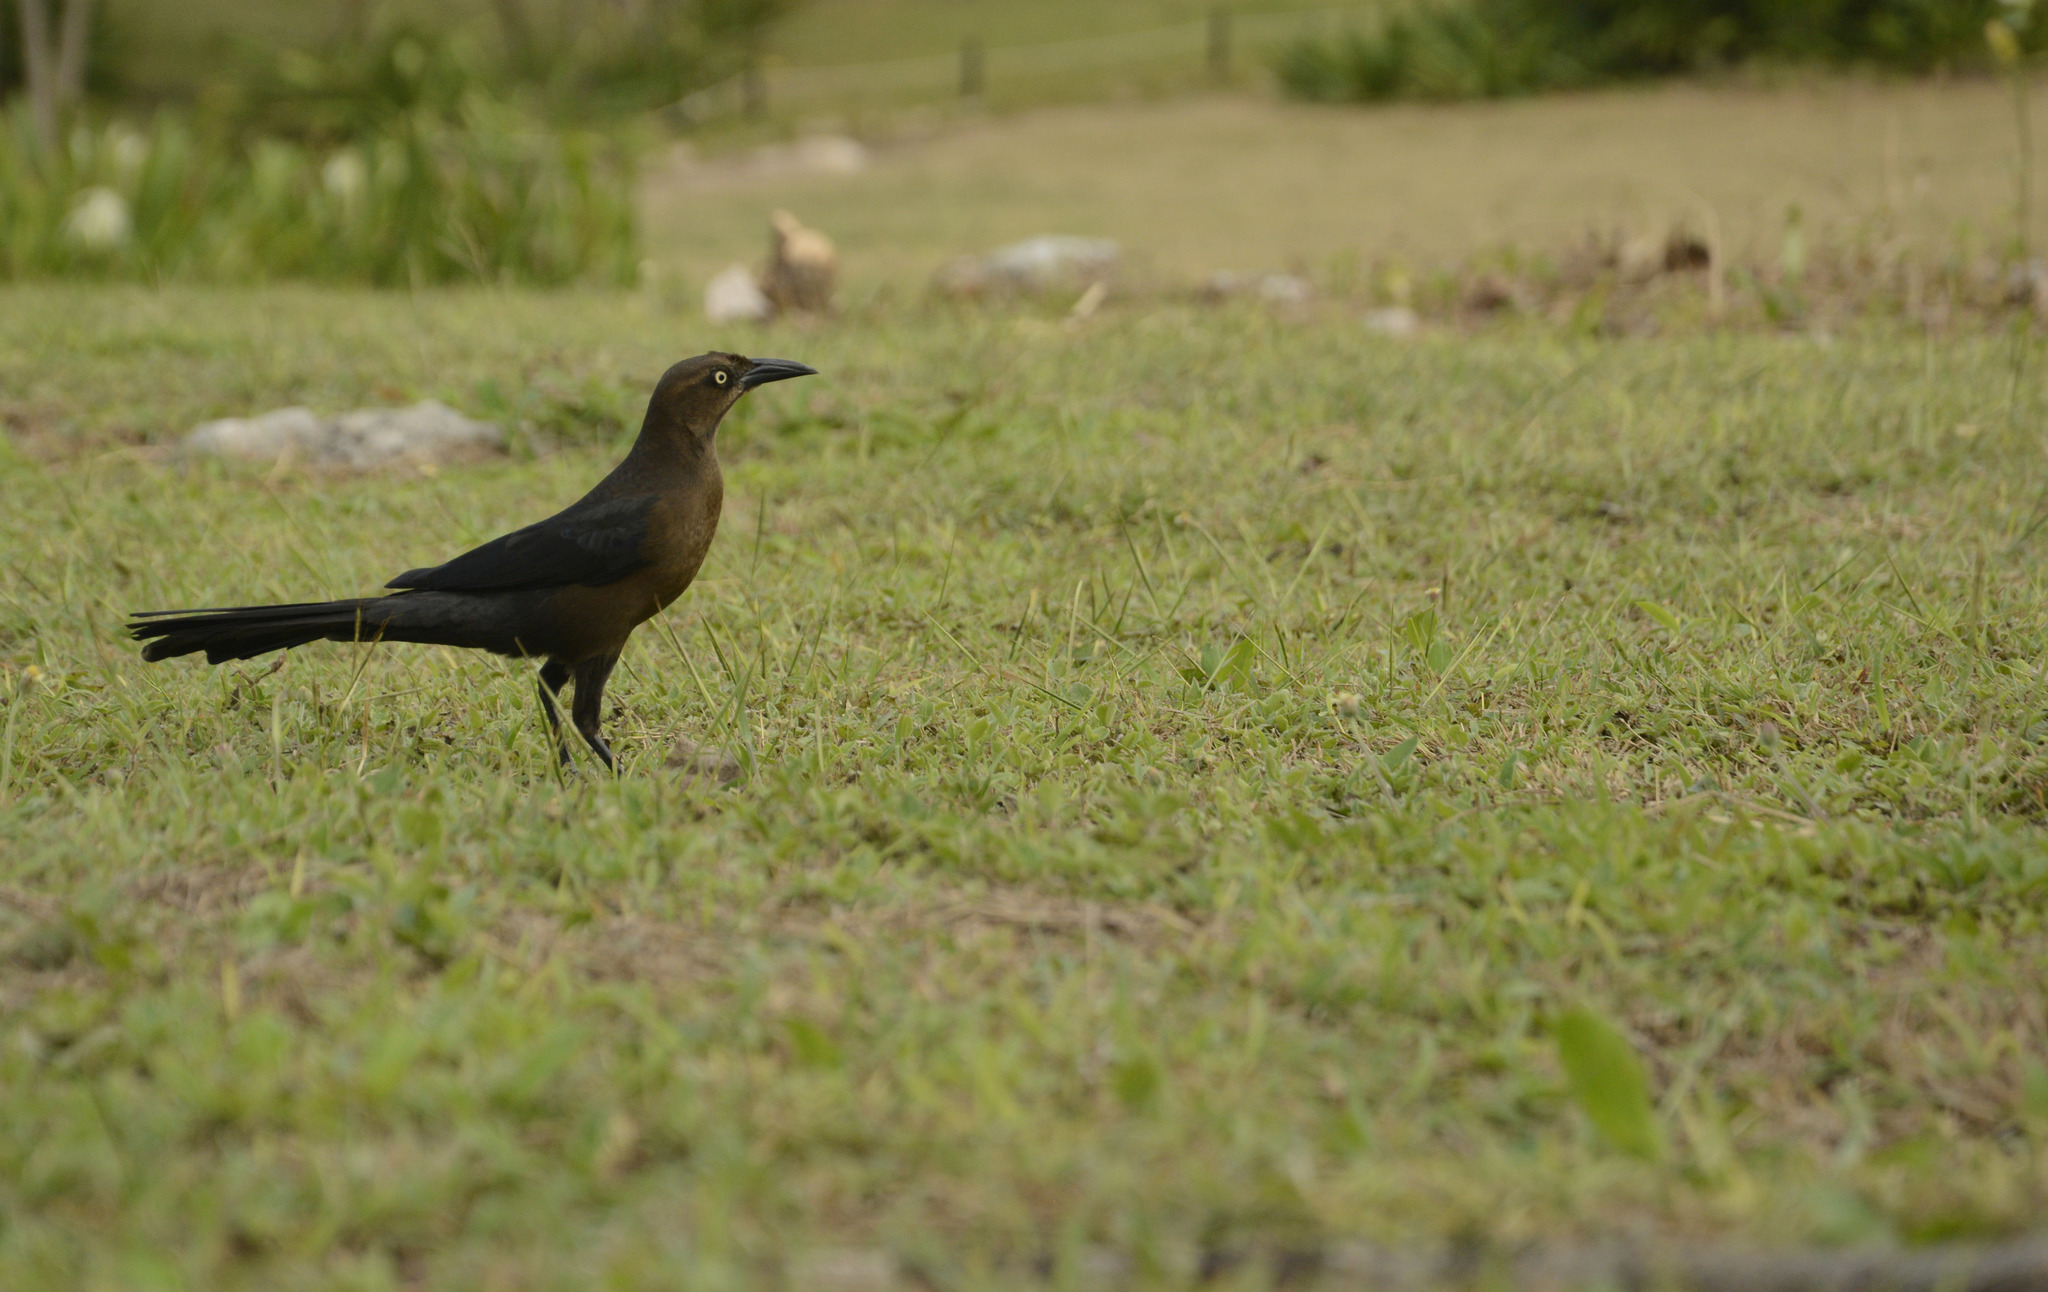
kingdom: Animalia
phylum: Chordata
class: Aves
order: Passeriformes
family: Icteridae
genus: Quiscalus
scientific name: Quiscalus mexicanus
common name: Great-tailed grackle
